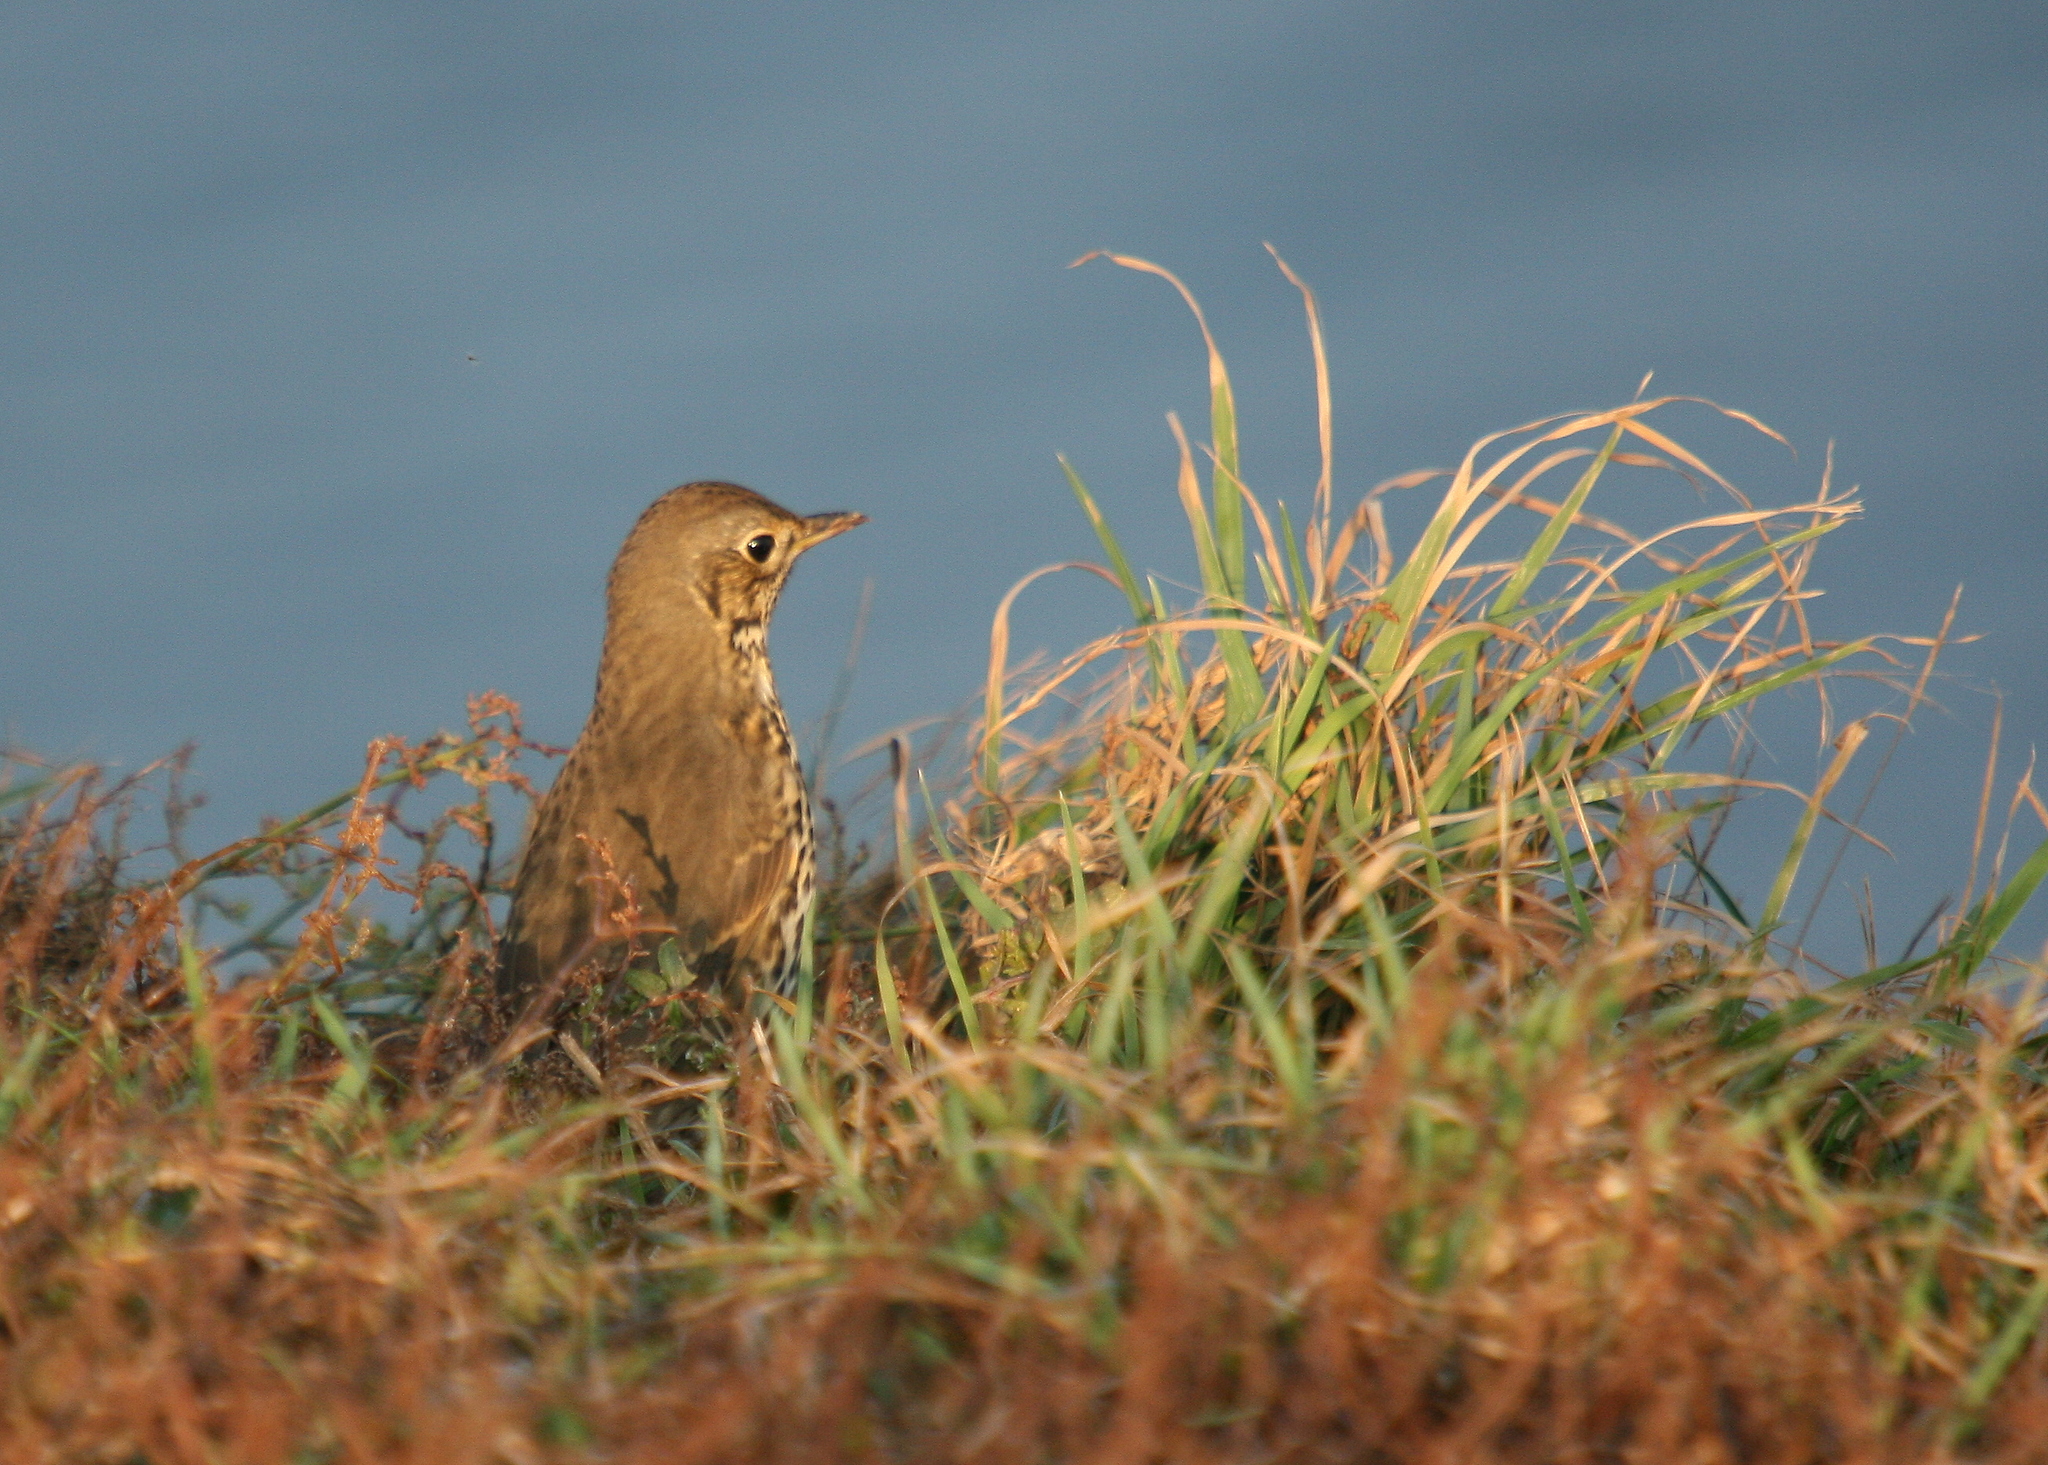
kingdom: Animalia
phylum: Chordata
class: Aves
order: Passeriformes
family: Turdidae
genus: Turdus
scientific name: Turdus philomelos
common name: Song thrush
